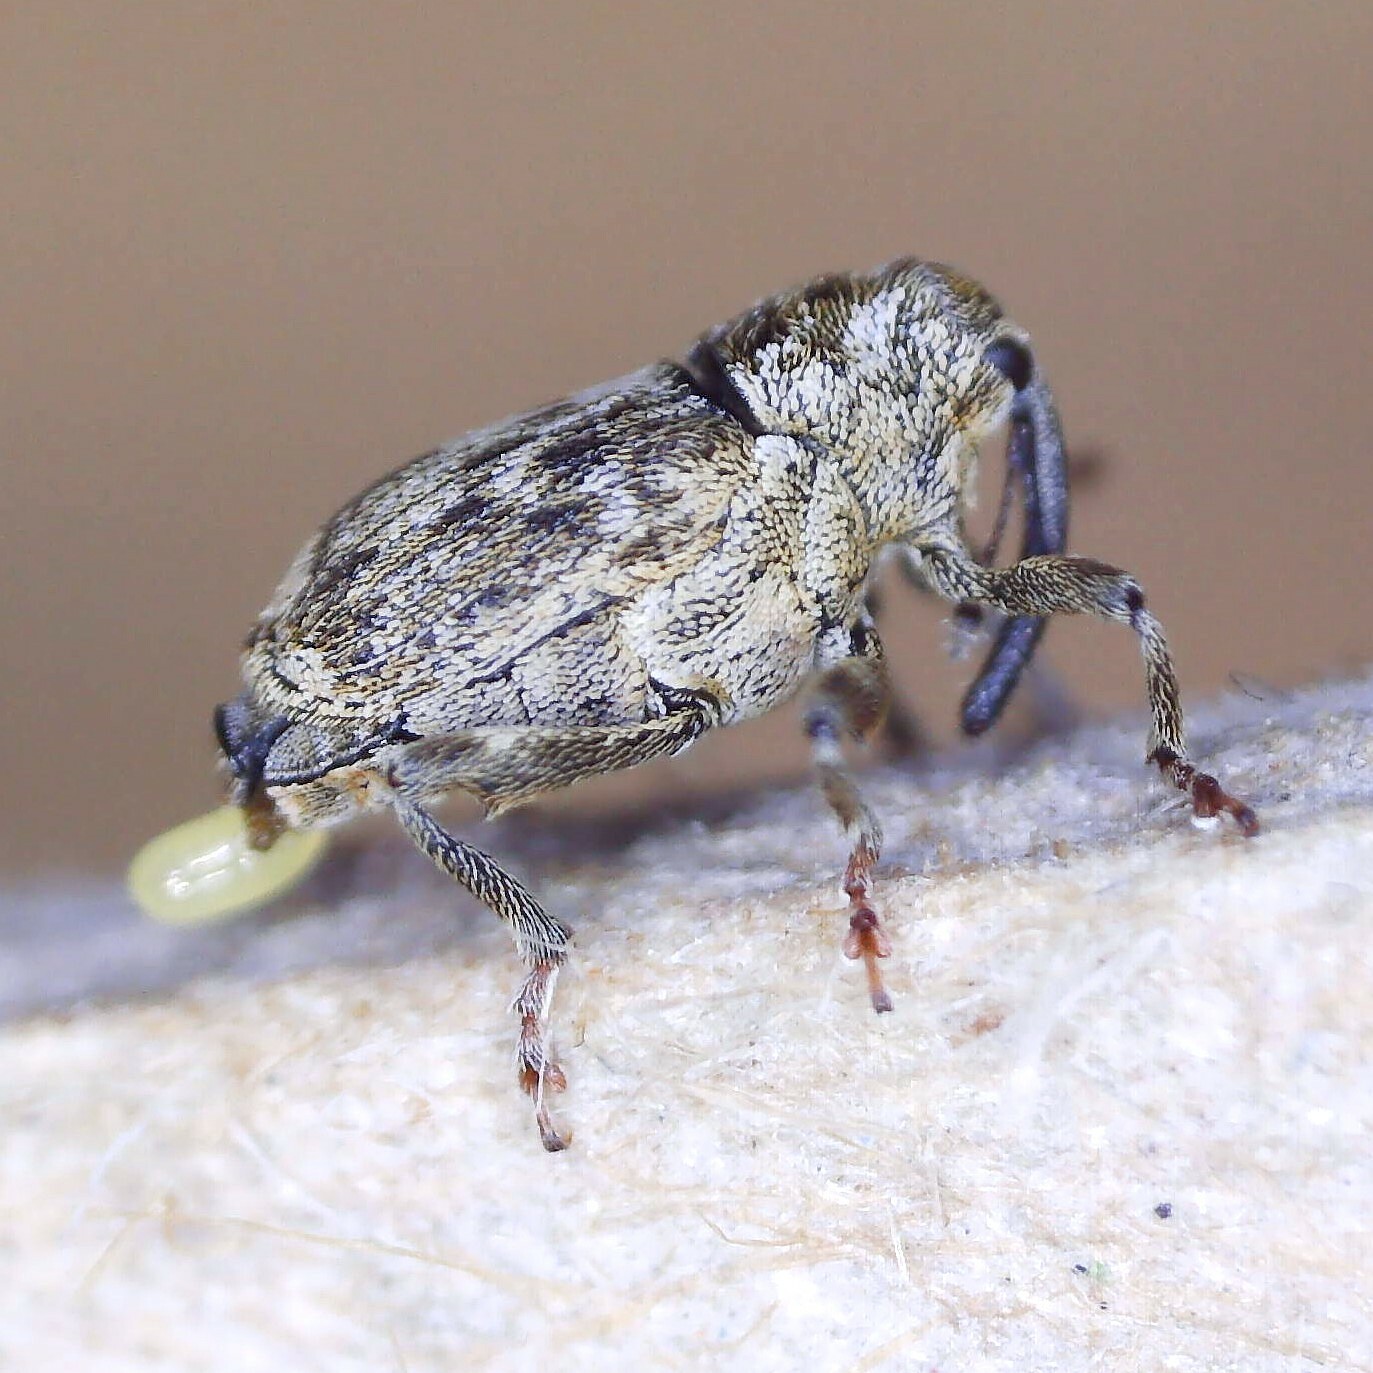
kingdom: Animalia
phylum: Arthropoda
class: Insecta
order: Coleoptera
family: Curculionidae
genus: Datonychus
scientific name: Datonychus melanostictus
